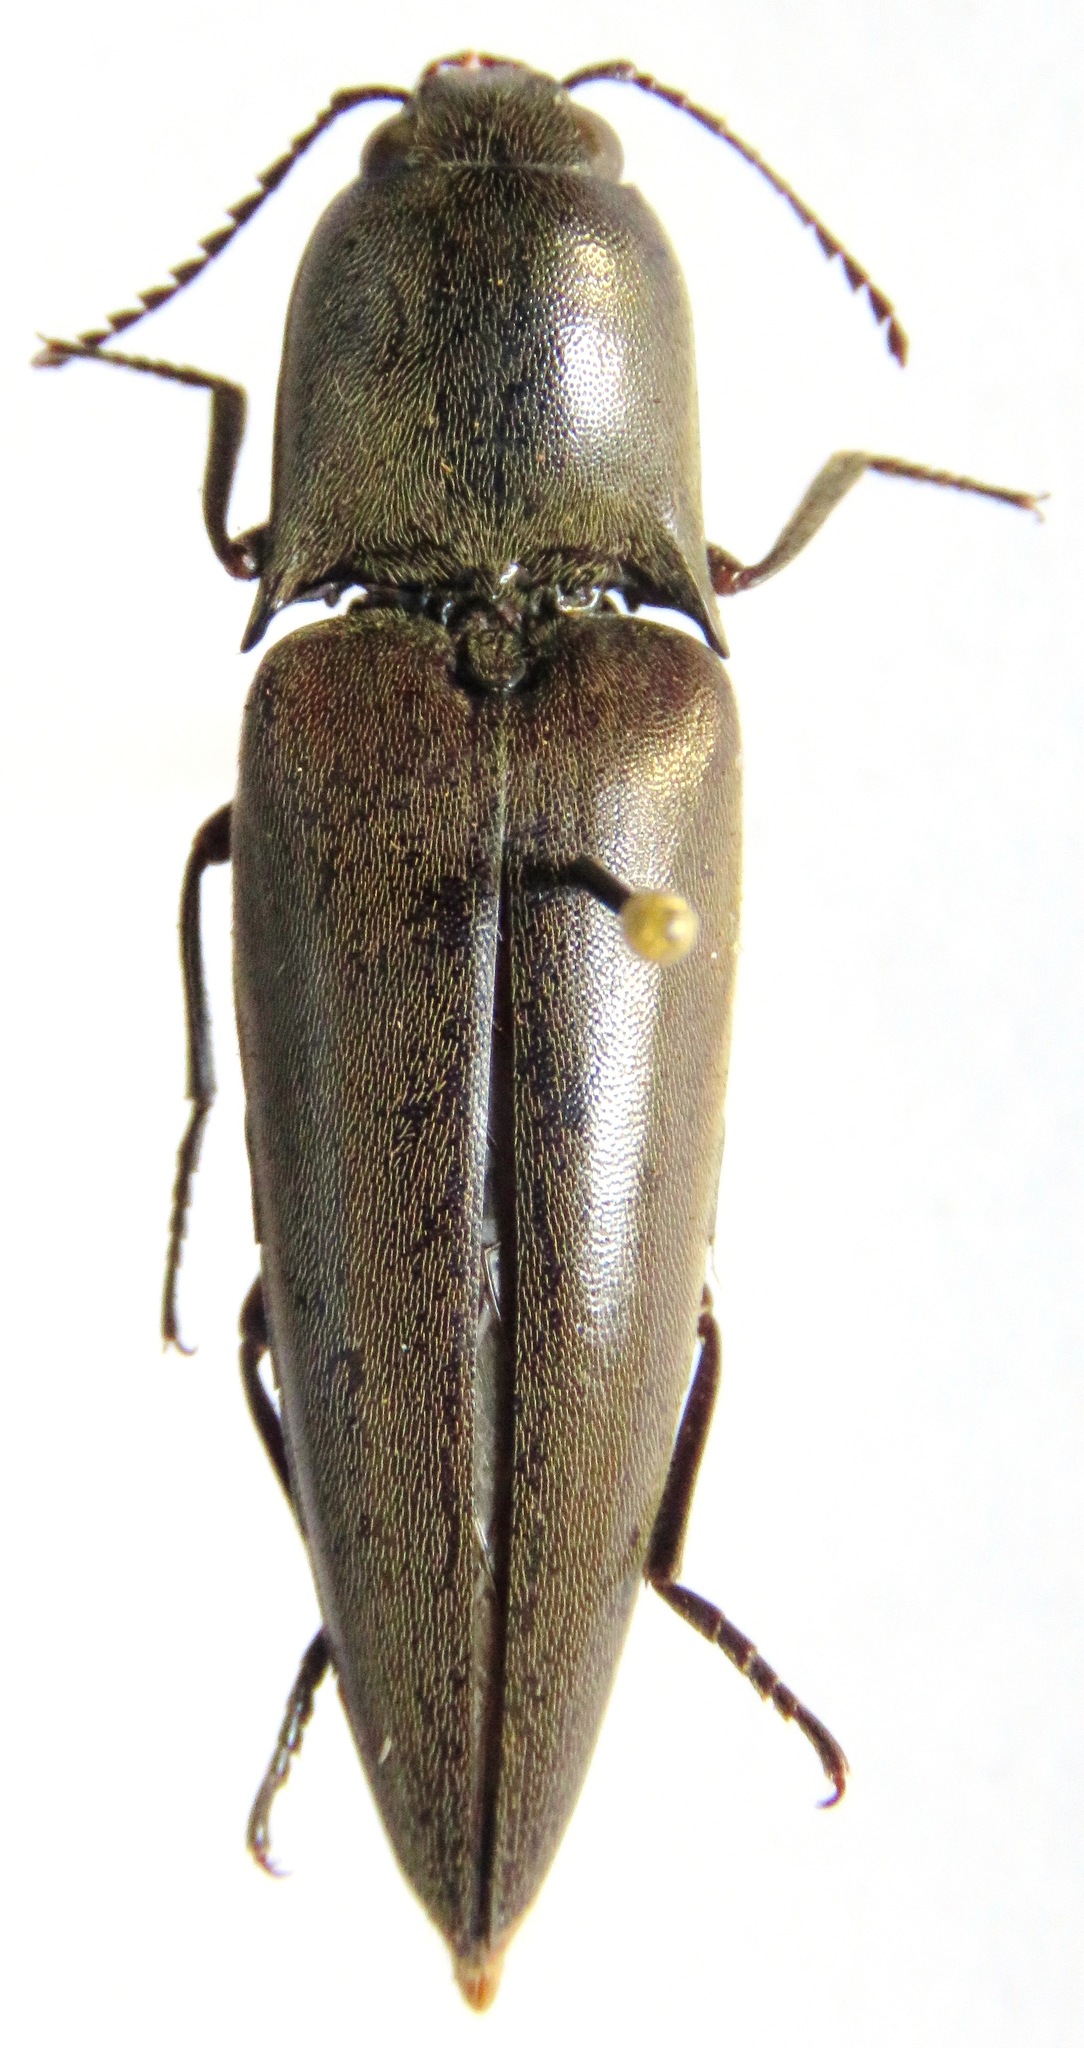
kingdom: Animalia
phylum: Arthropoda
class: Insecta
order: Coleoptera
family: Elateridae
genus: Orthostethus
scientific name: Orthostethus infuscatus
